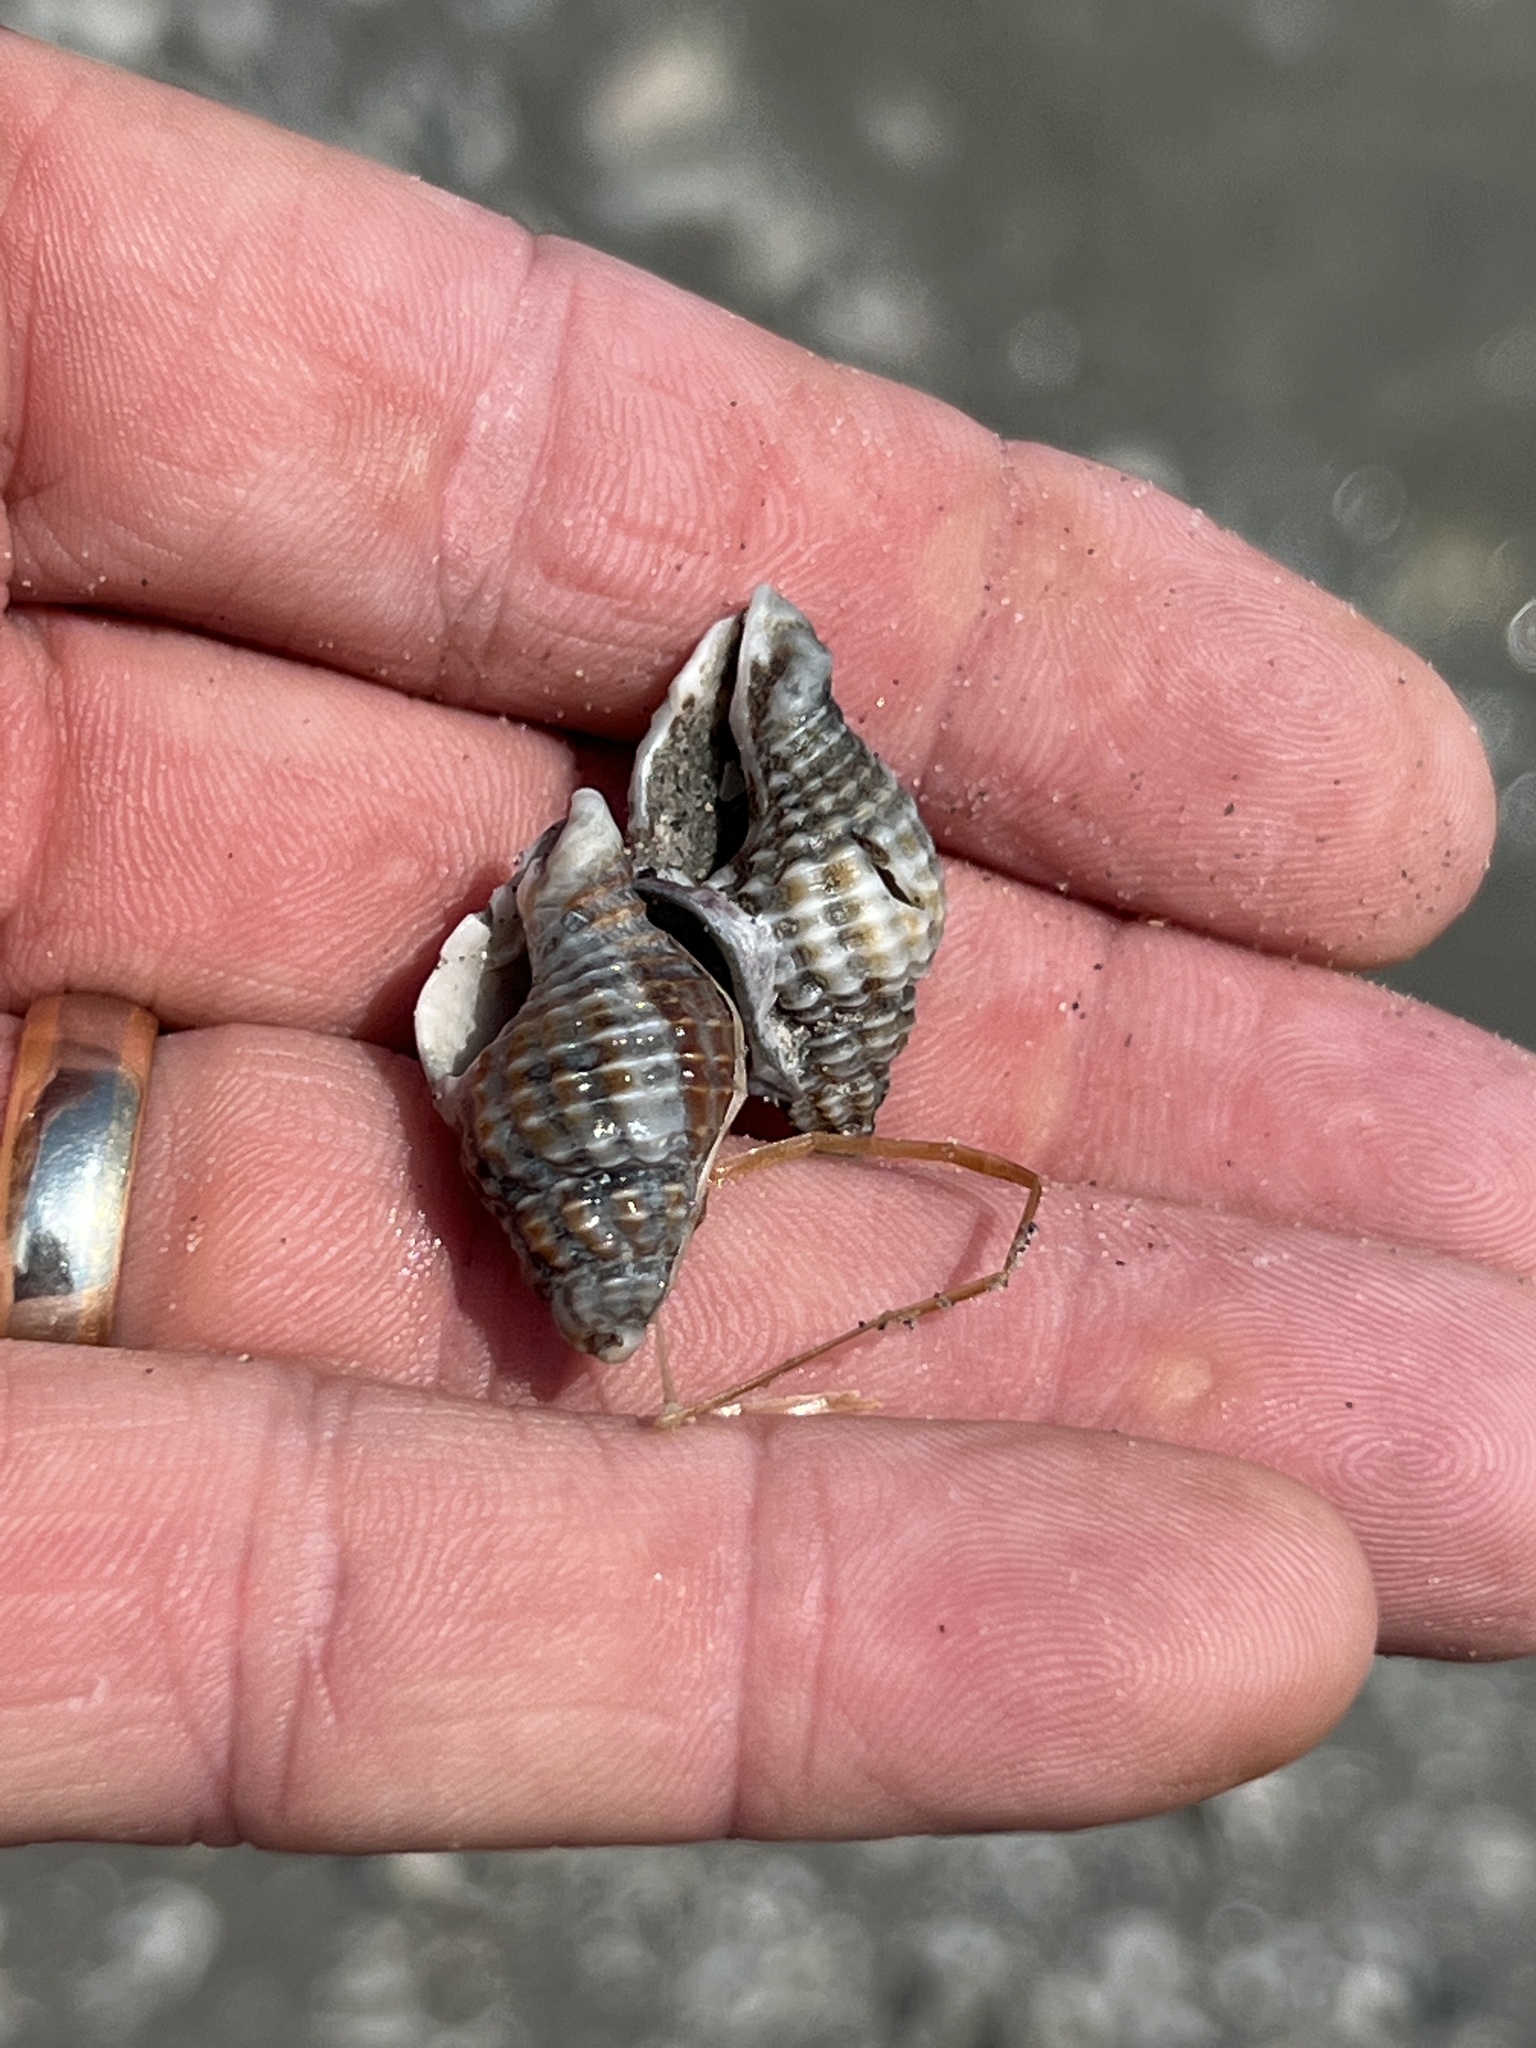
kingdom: Animalia
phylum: Mollusca
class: Gastropoda
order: Neogastropoda
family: Pisaniidae
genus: Solenosteira
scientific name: Solenosteira cancellaria
